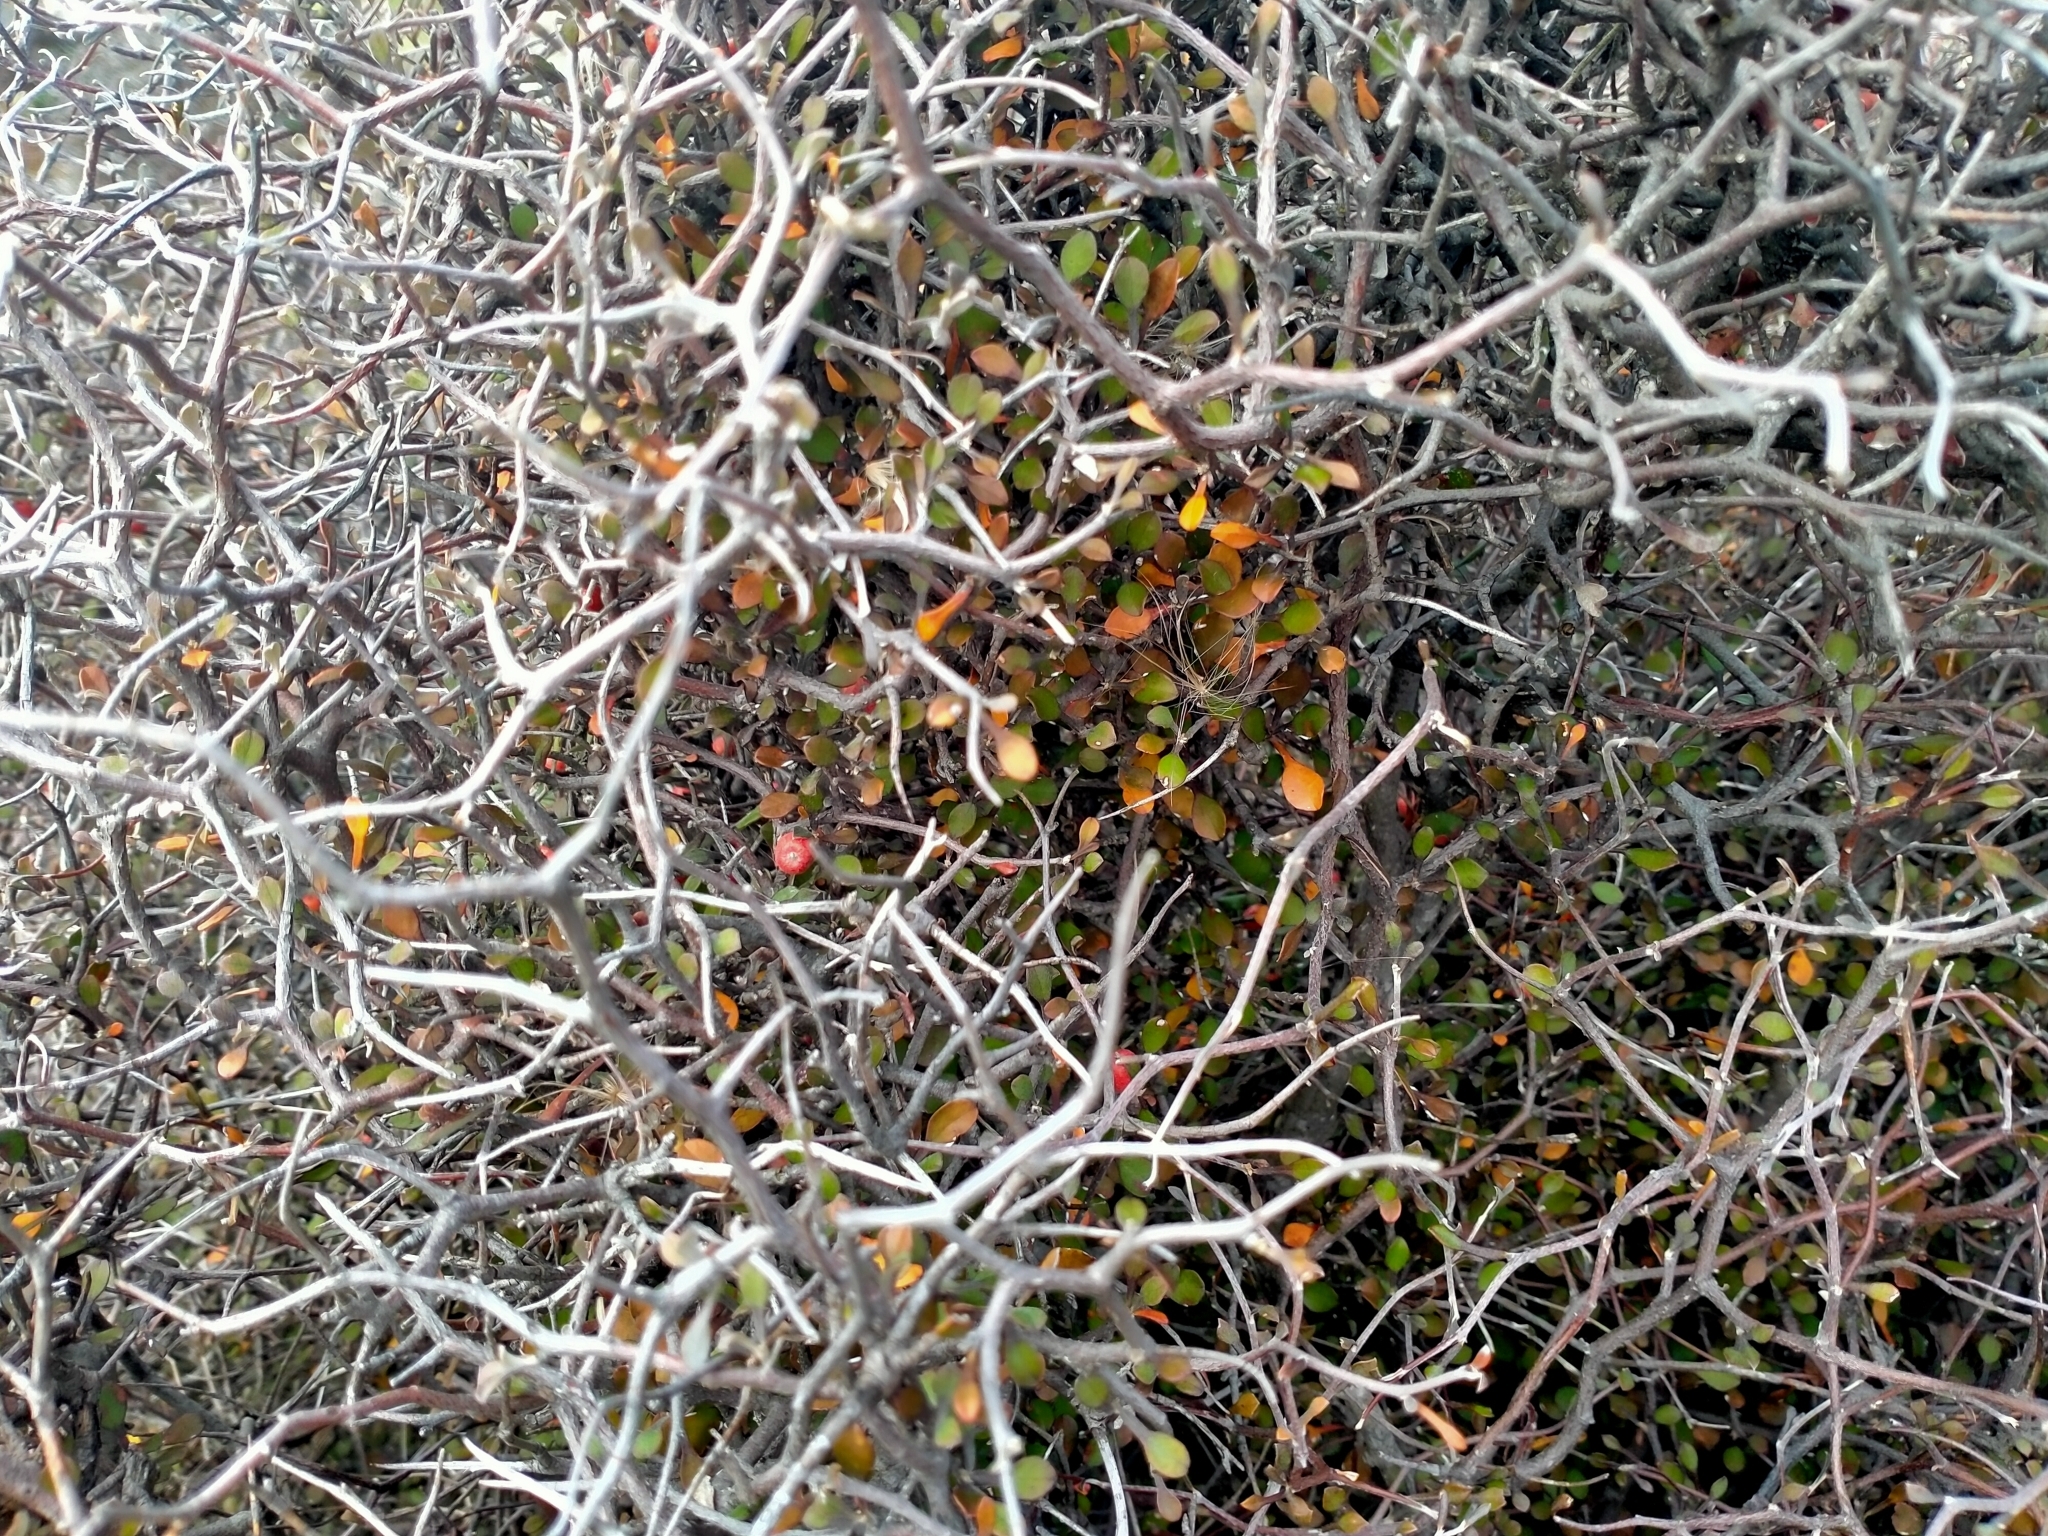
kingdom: Plantae
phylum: Tracheophyta
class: Magnoliopsida
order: Asterales
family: Argophyllaceae
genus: Corokia
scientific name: Corokia cotoneaster
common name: Wire nettingbush
